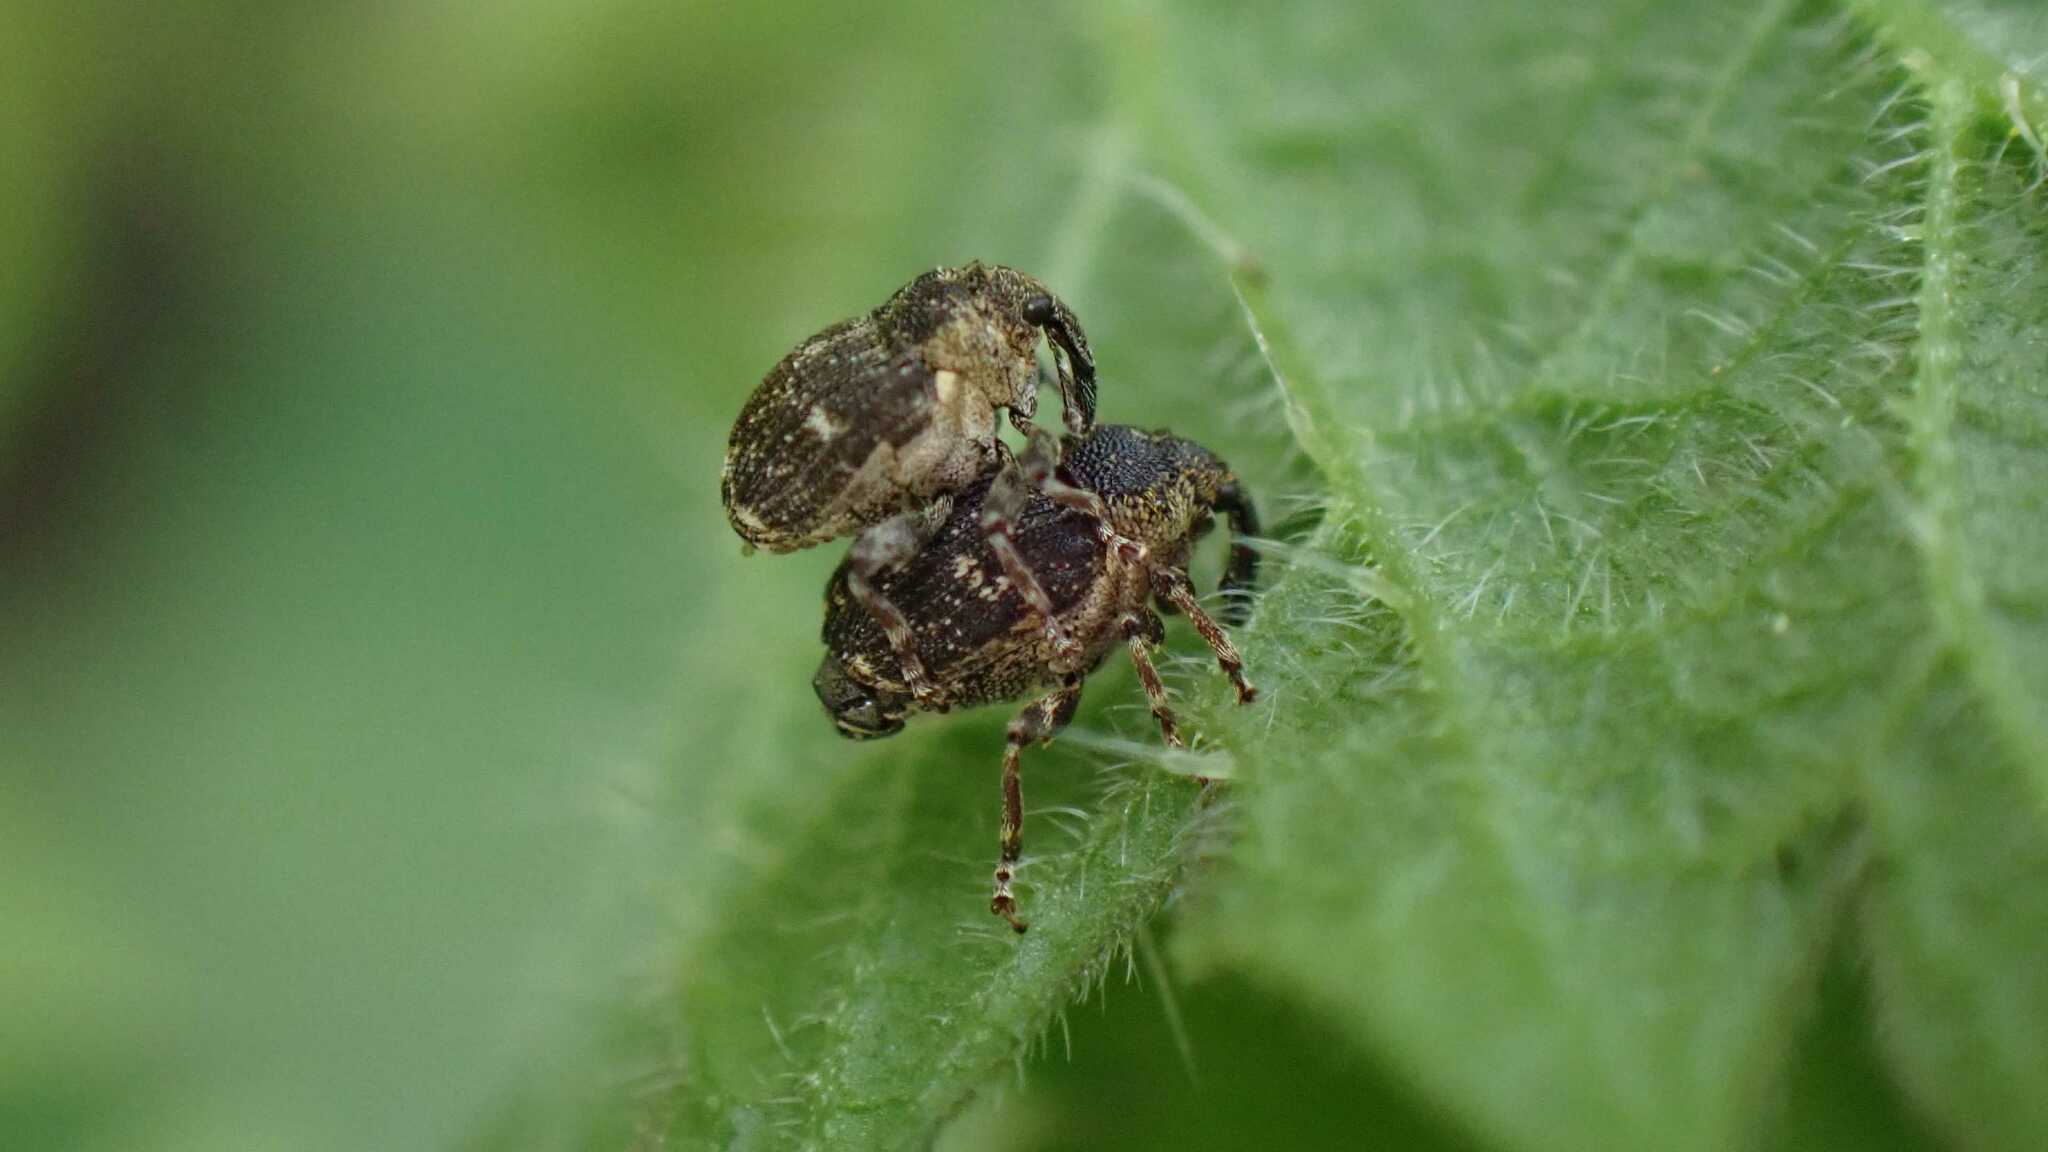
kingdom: Animalia
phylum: Arthropoda
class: Insecta
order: Coleoptera
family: Curculionidae
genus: Nedyus
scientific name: Nedyus quadrimaculatus
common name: Small nettle weevil
